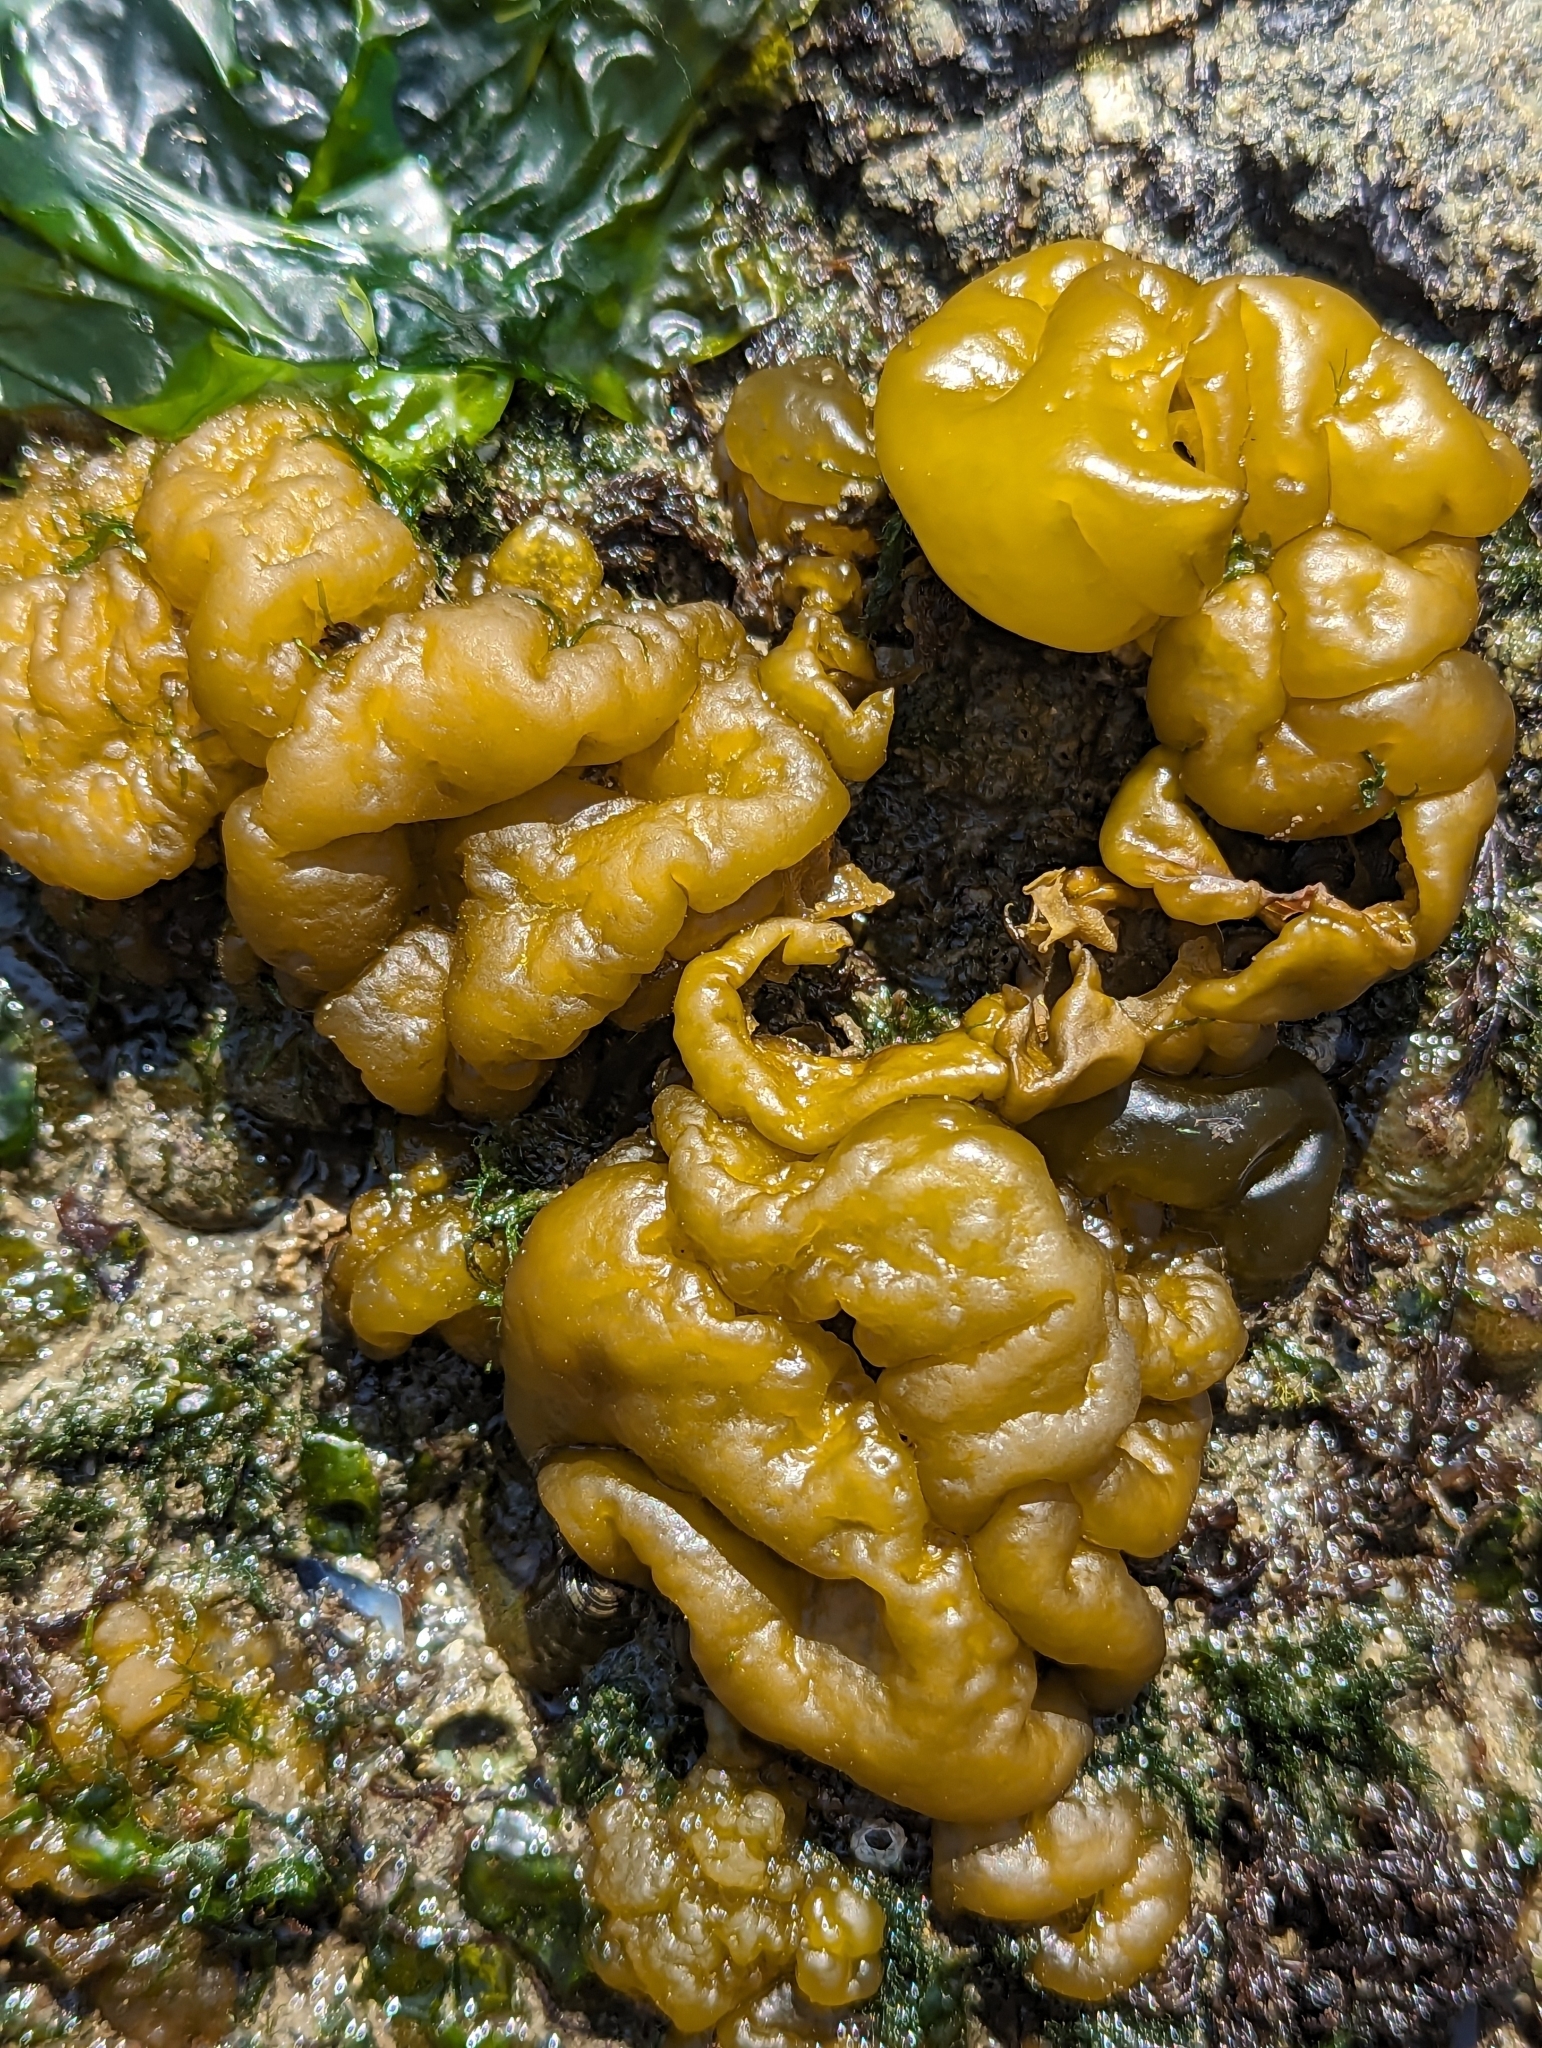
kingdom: Chromista
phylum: Ochrophyta
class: Phaeophyceae
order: Ectocarpales
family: Chordariaceae
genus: Leathesia
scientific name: Leathesia marina
